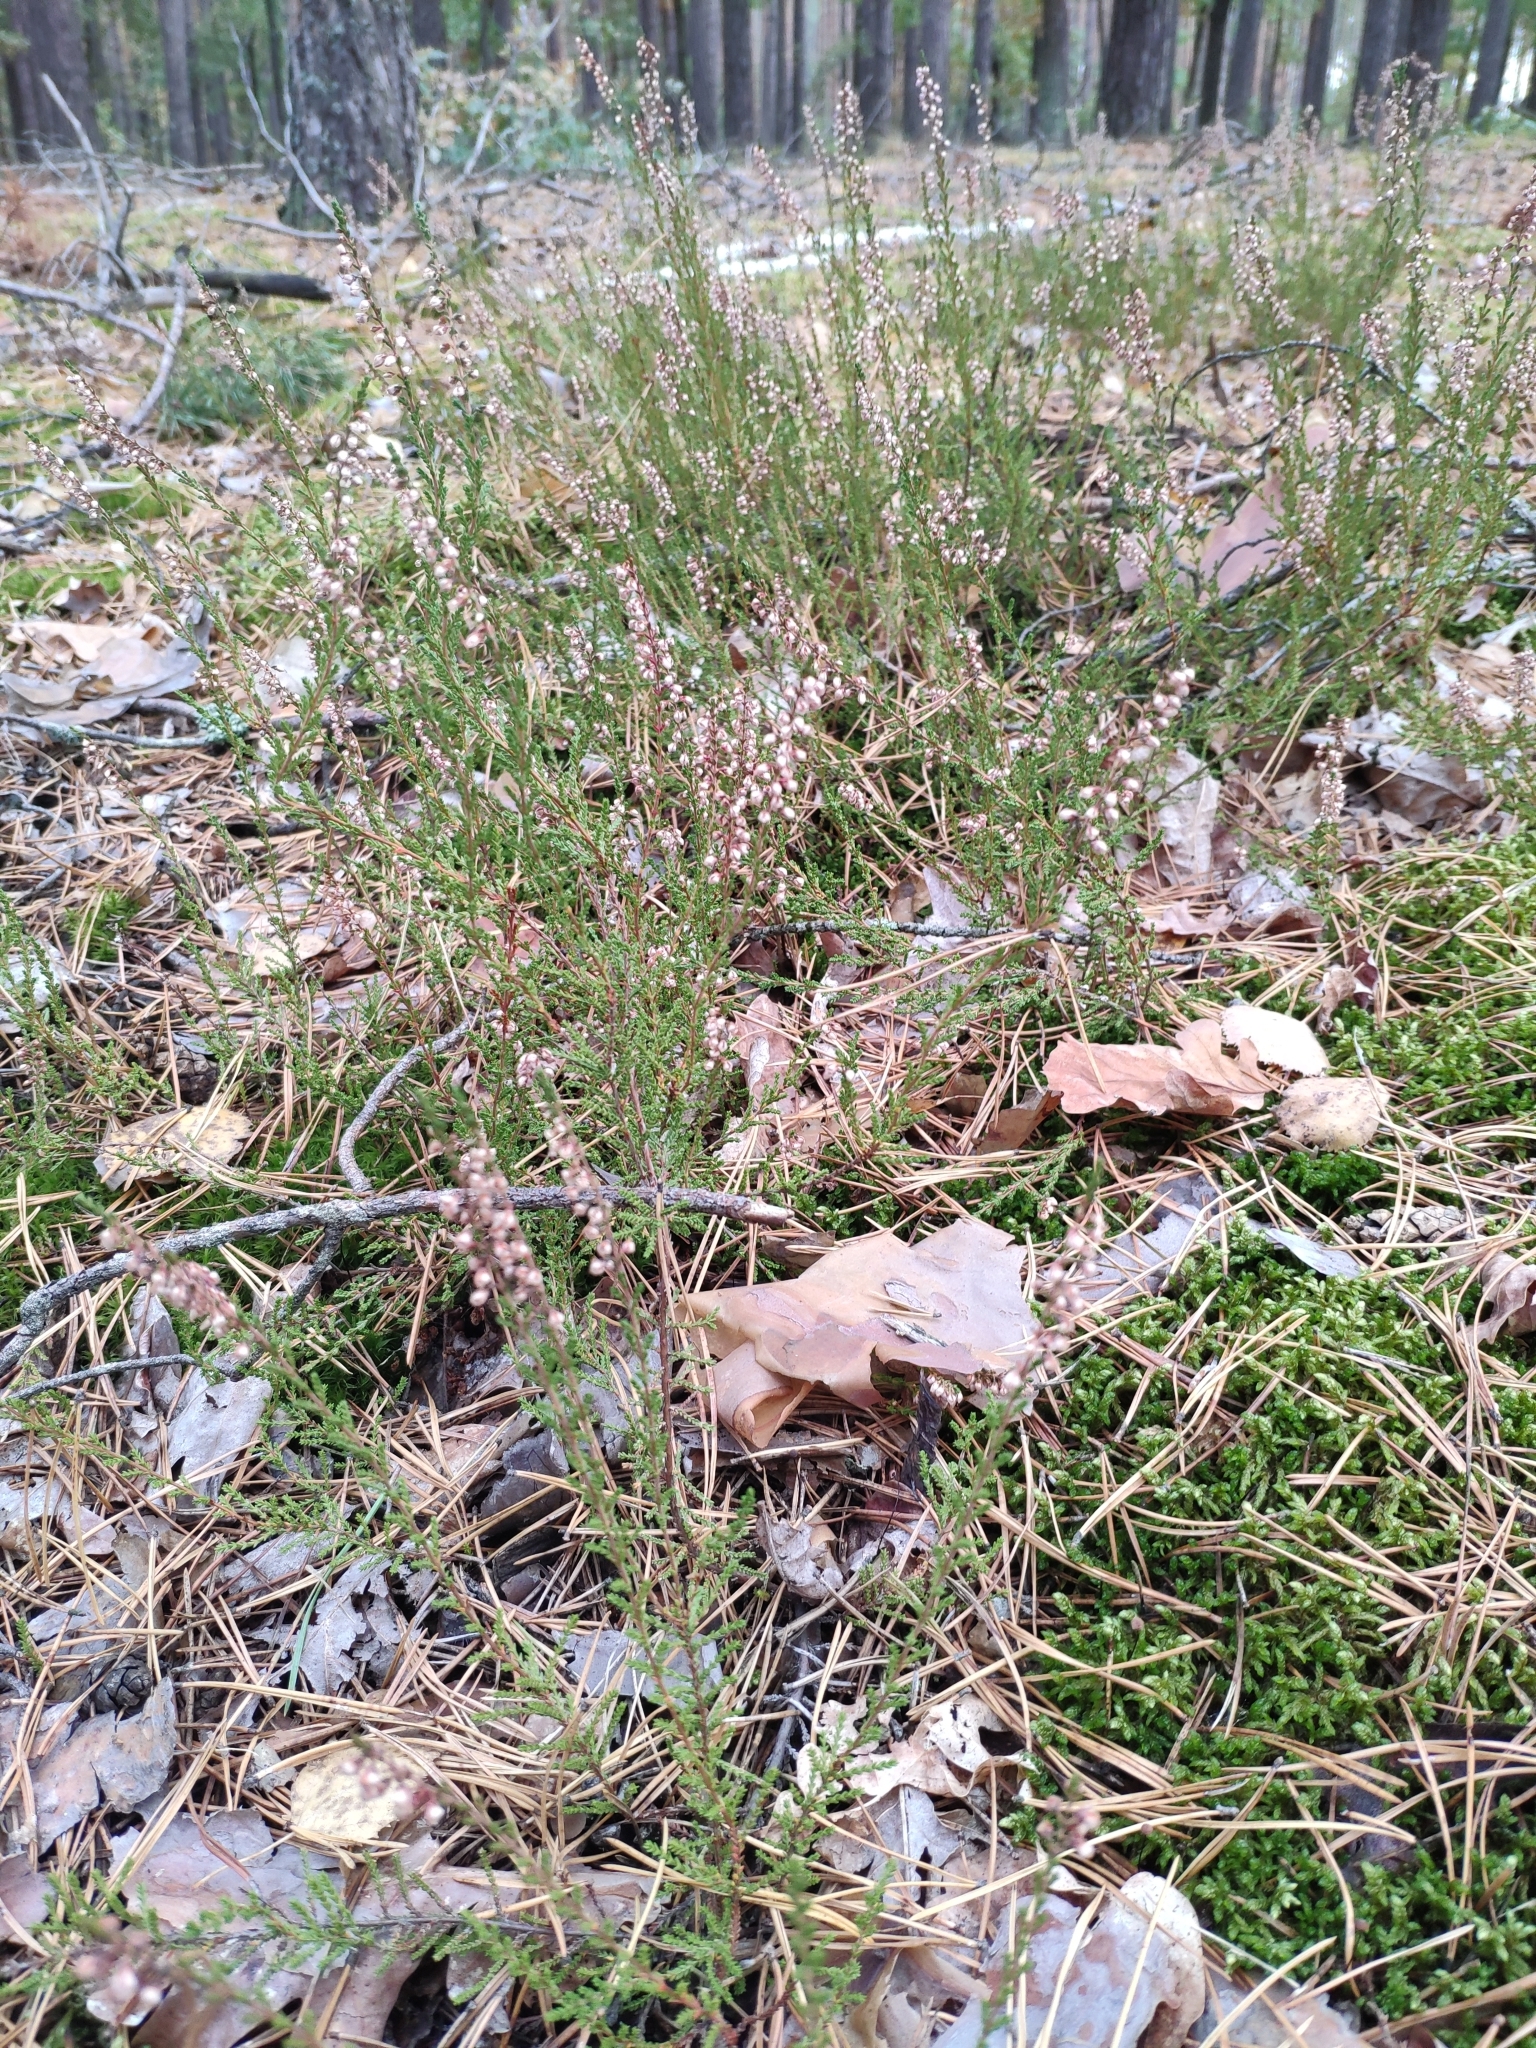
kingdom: Plantae
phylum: Tracheophyta
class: Magnoliopsida
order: Ericales
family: Ericaceae
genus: Calluna
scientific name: Calluna vulgaris
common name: Heather
